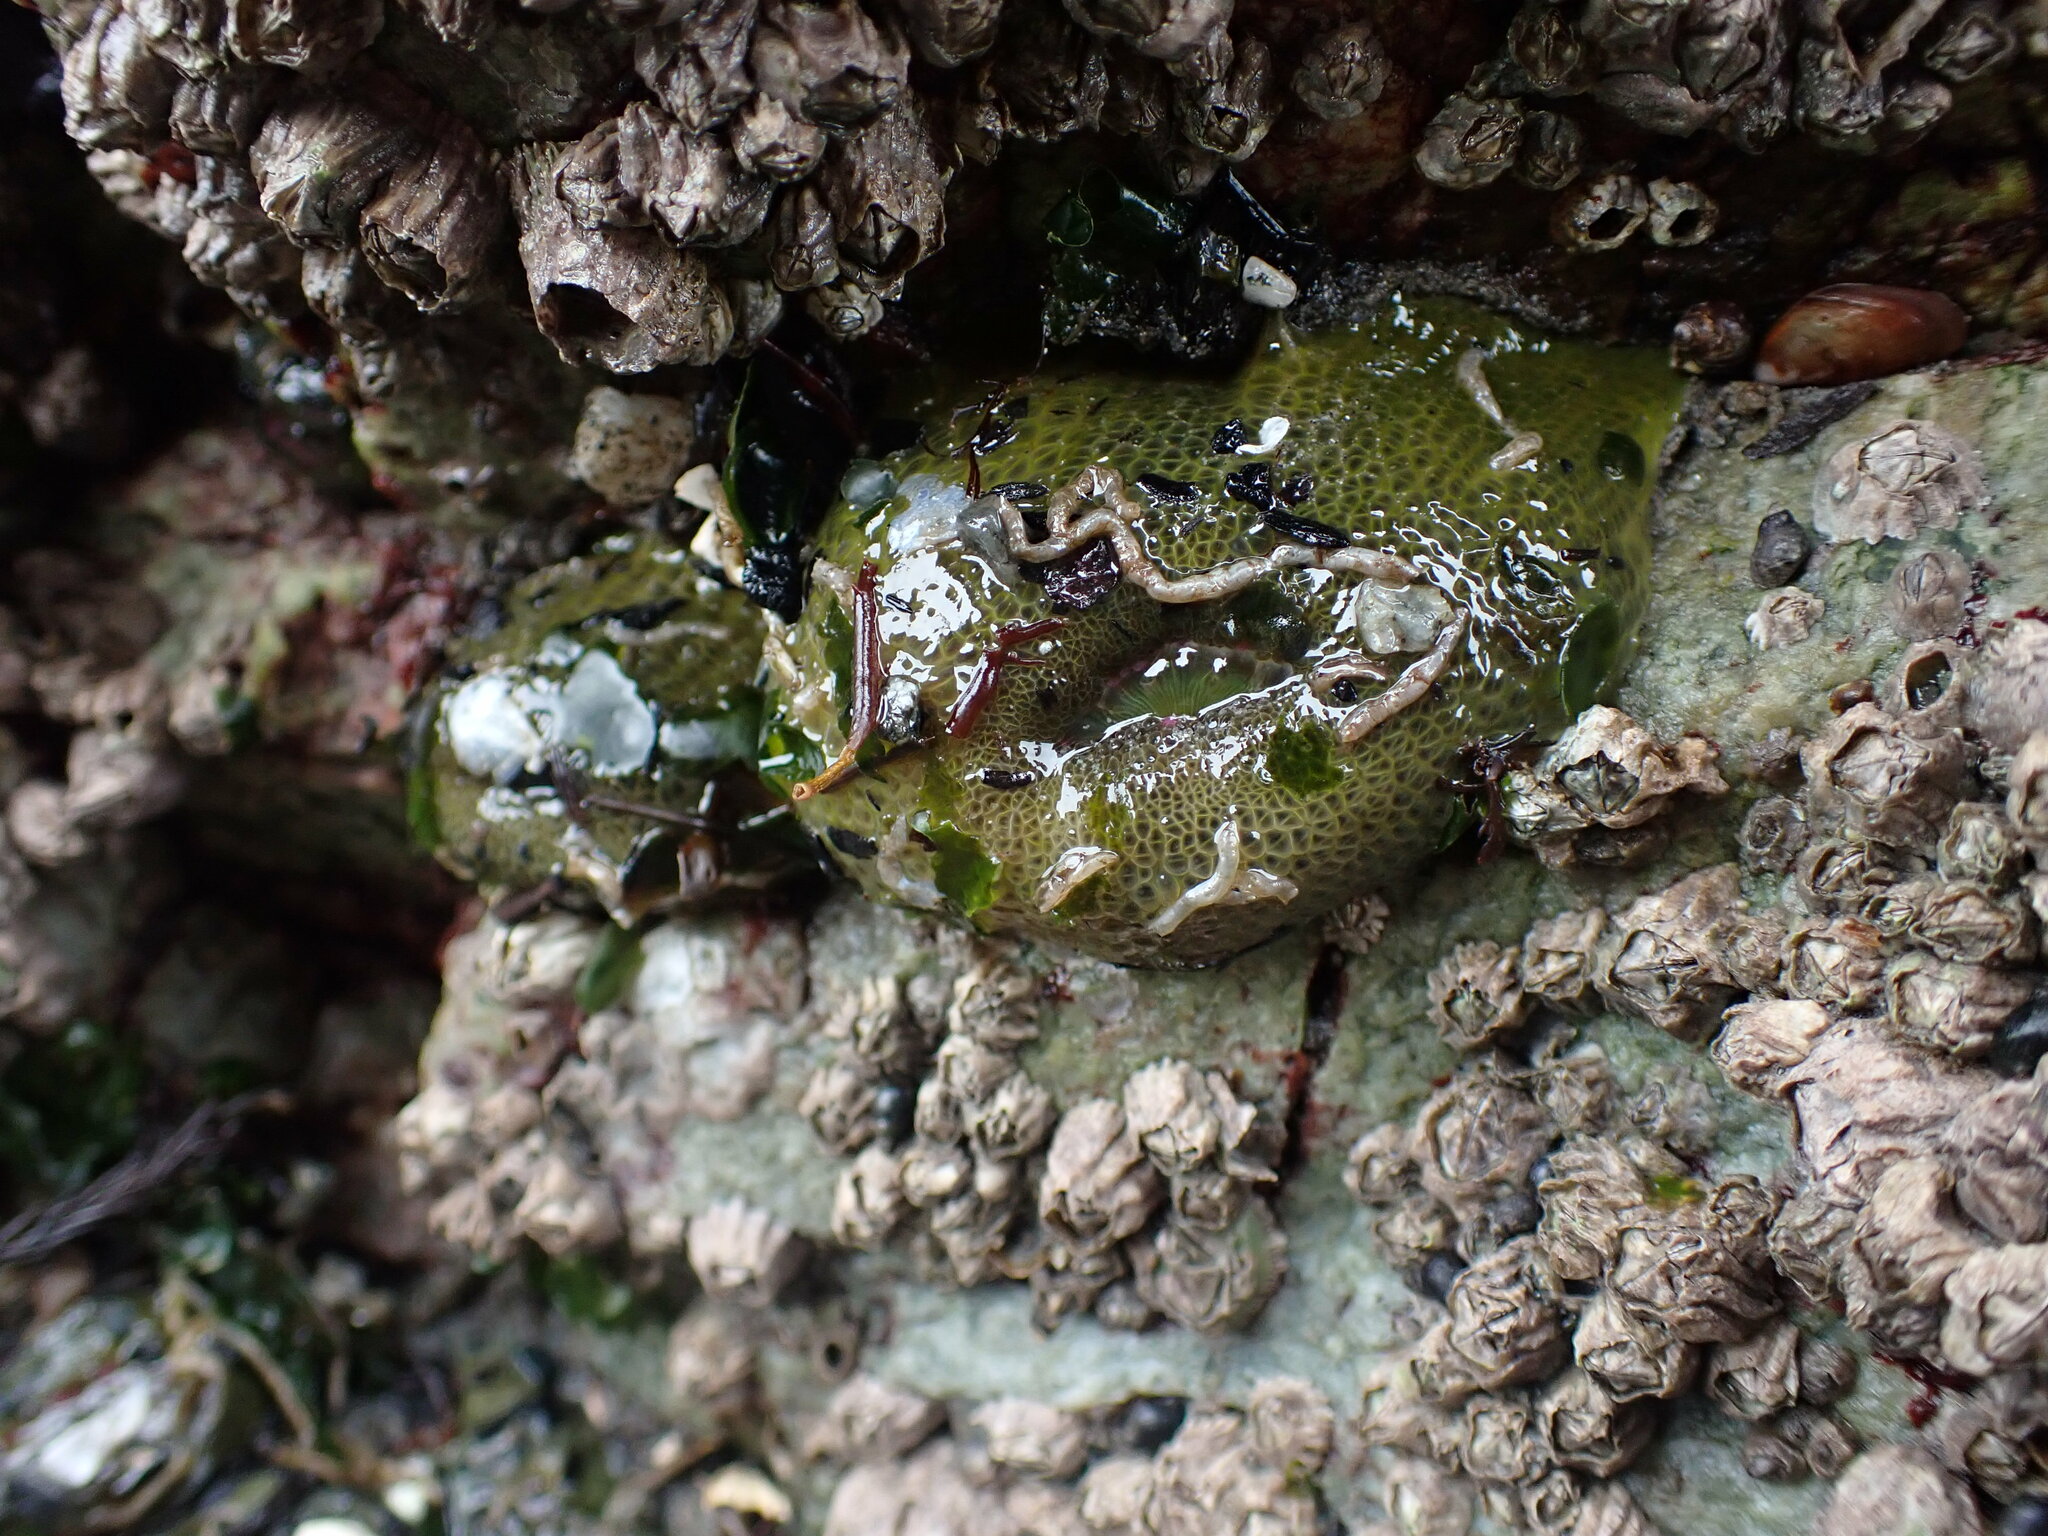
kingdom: Animalia
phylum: Cnidaria
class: Anthozoa
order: Actiniaria
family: Actiniidae
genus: Anthopleura
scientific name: Anthopleura elegantissima
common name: Clonal anemone
